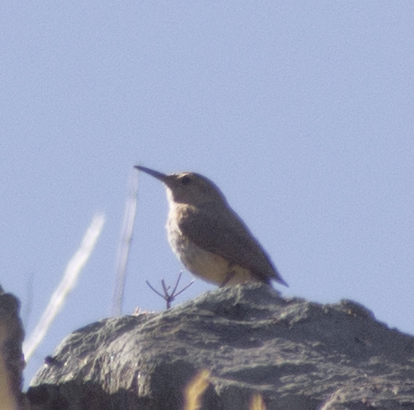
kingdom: Animalia
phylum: Chordata
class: Aves
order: Passeriformes
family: Troglodytidae
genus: Salpinctes
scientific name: Salpinctes obsoletus
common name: Rock wren
